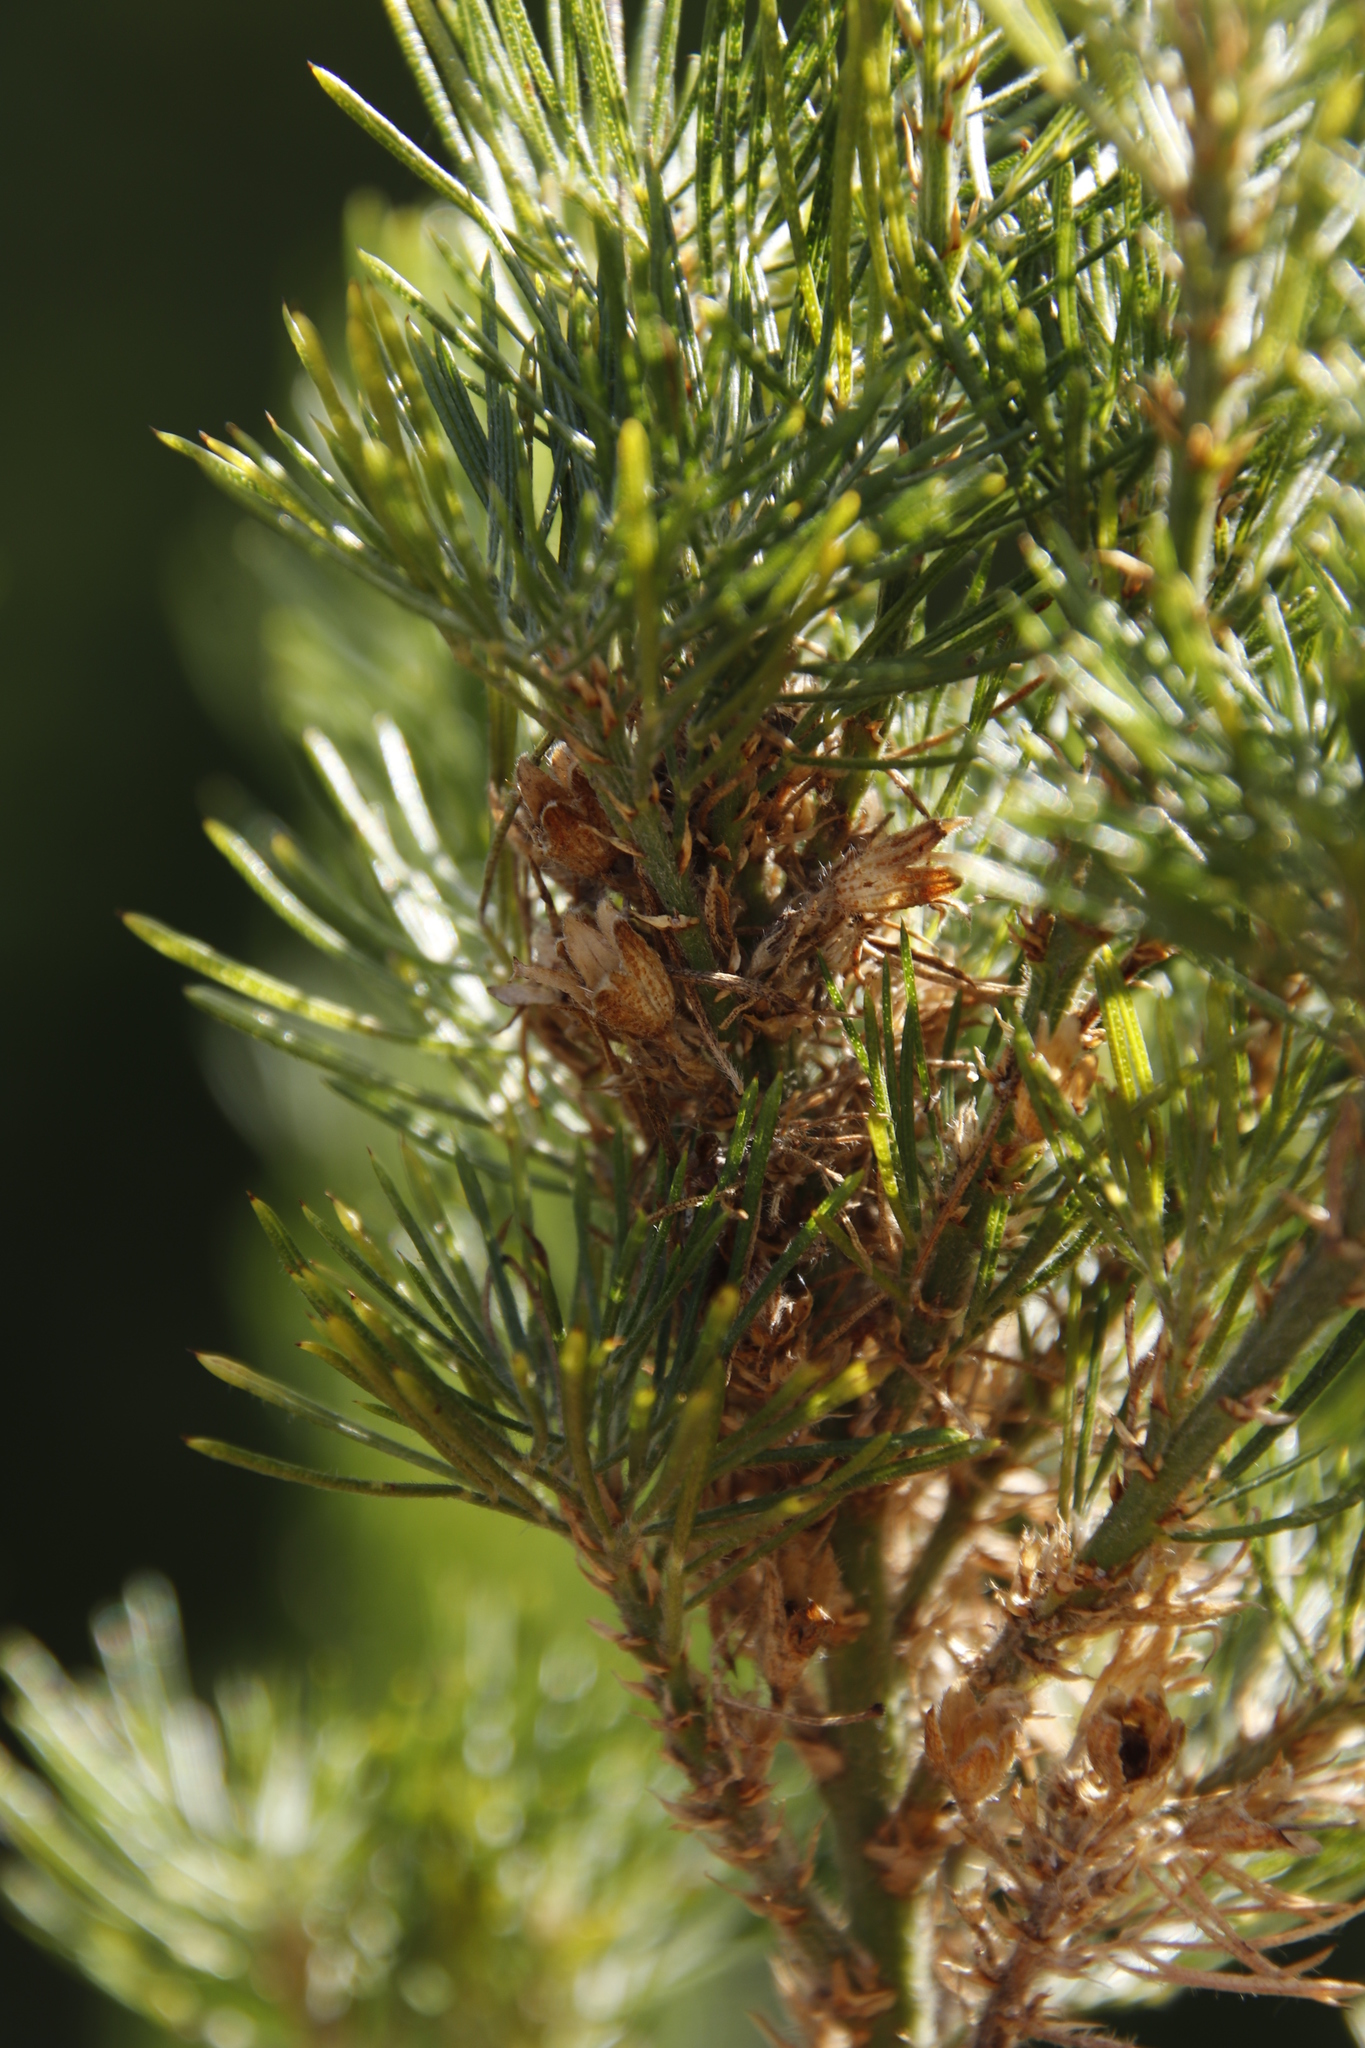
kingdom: Plantae
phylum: Tracheophyta
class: Magnoliopsida
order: Fabales
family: Fabaceae
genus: Psoralea
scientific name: Psoralea pinnata
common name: African scurfpea
